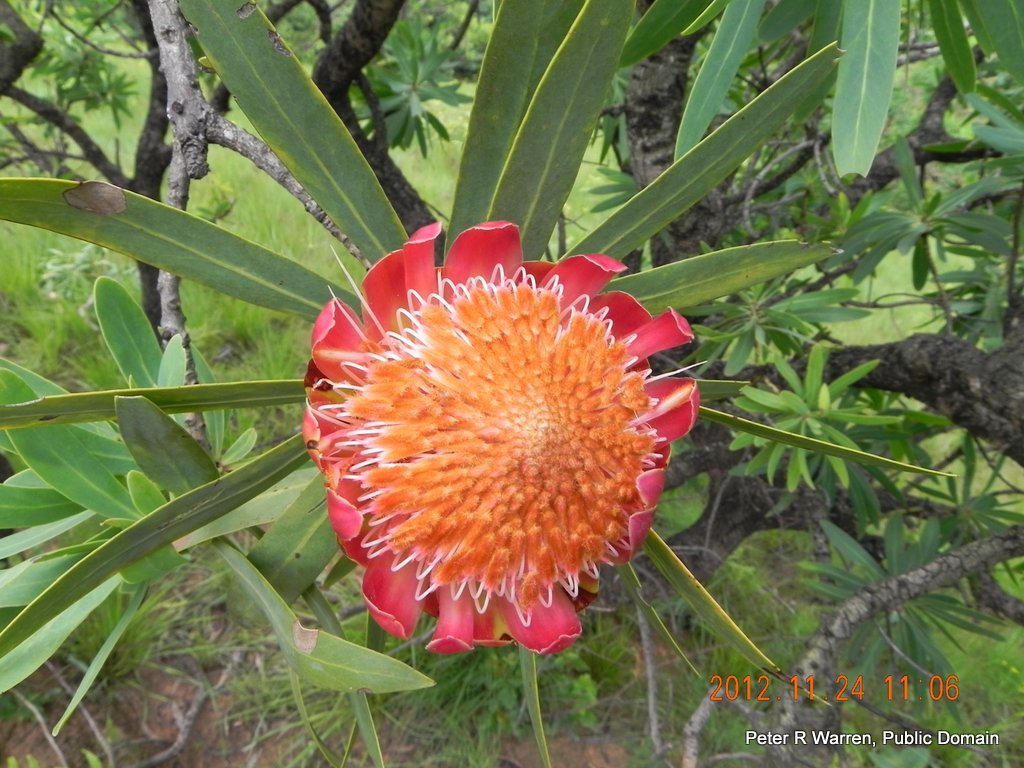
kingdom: Plantae
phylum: Tracheophyta
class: Magnoliopsida
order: Proteales
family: Proteaceae
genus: Protea
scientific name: Protea caffra
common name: Common sugarbush
